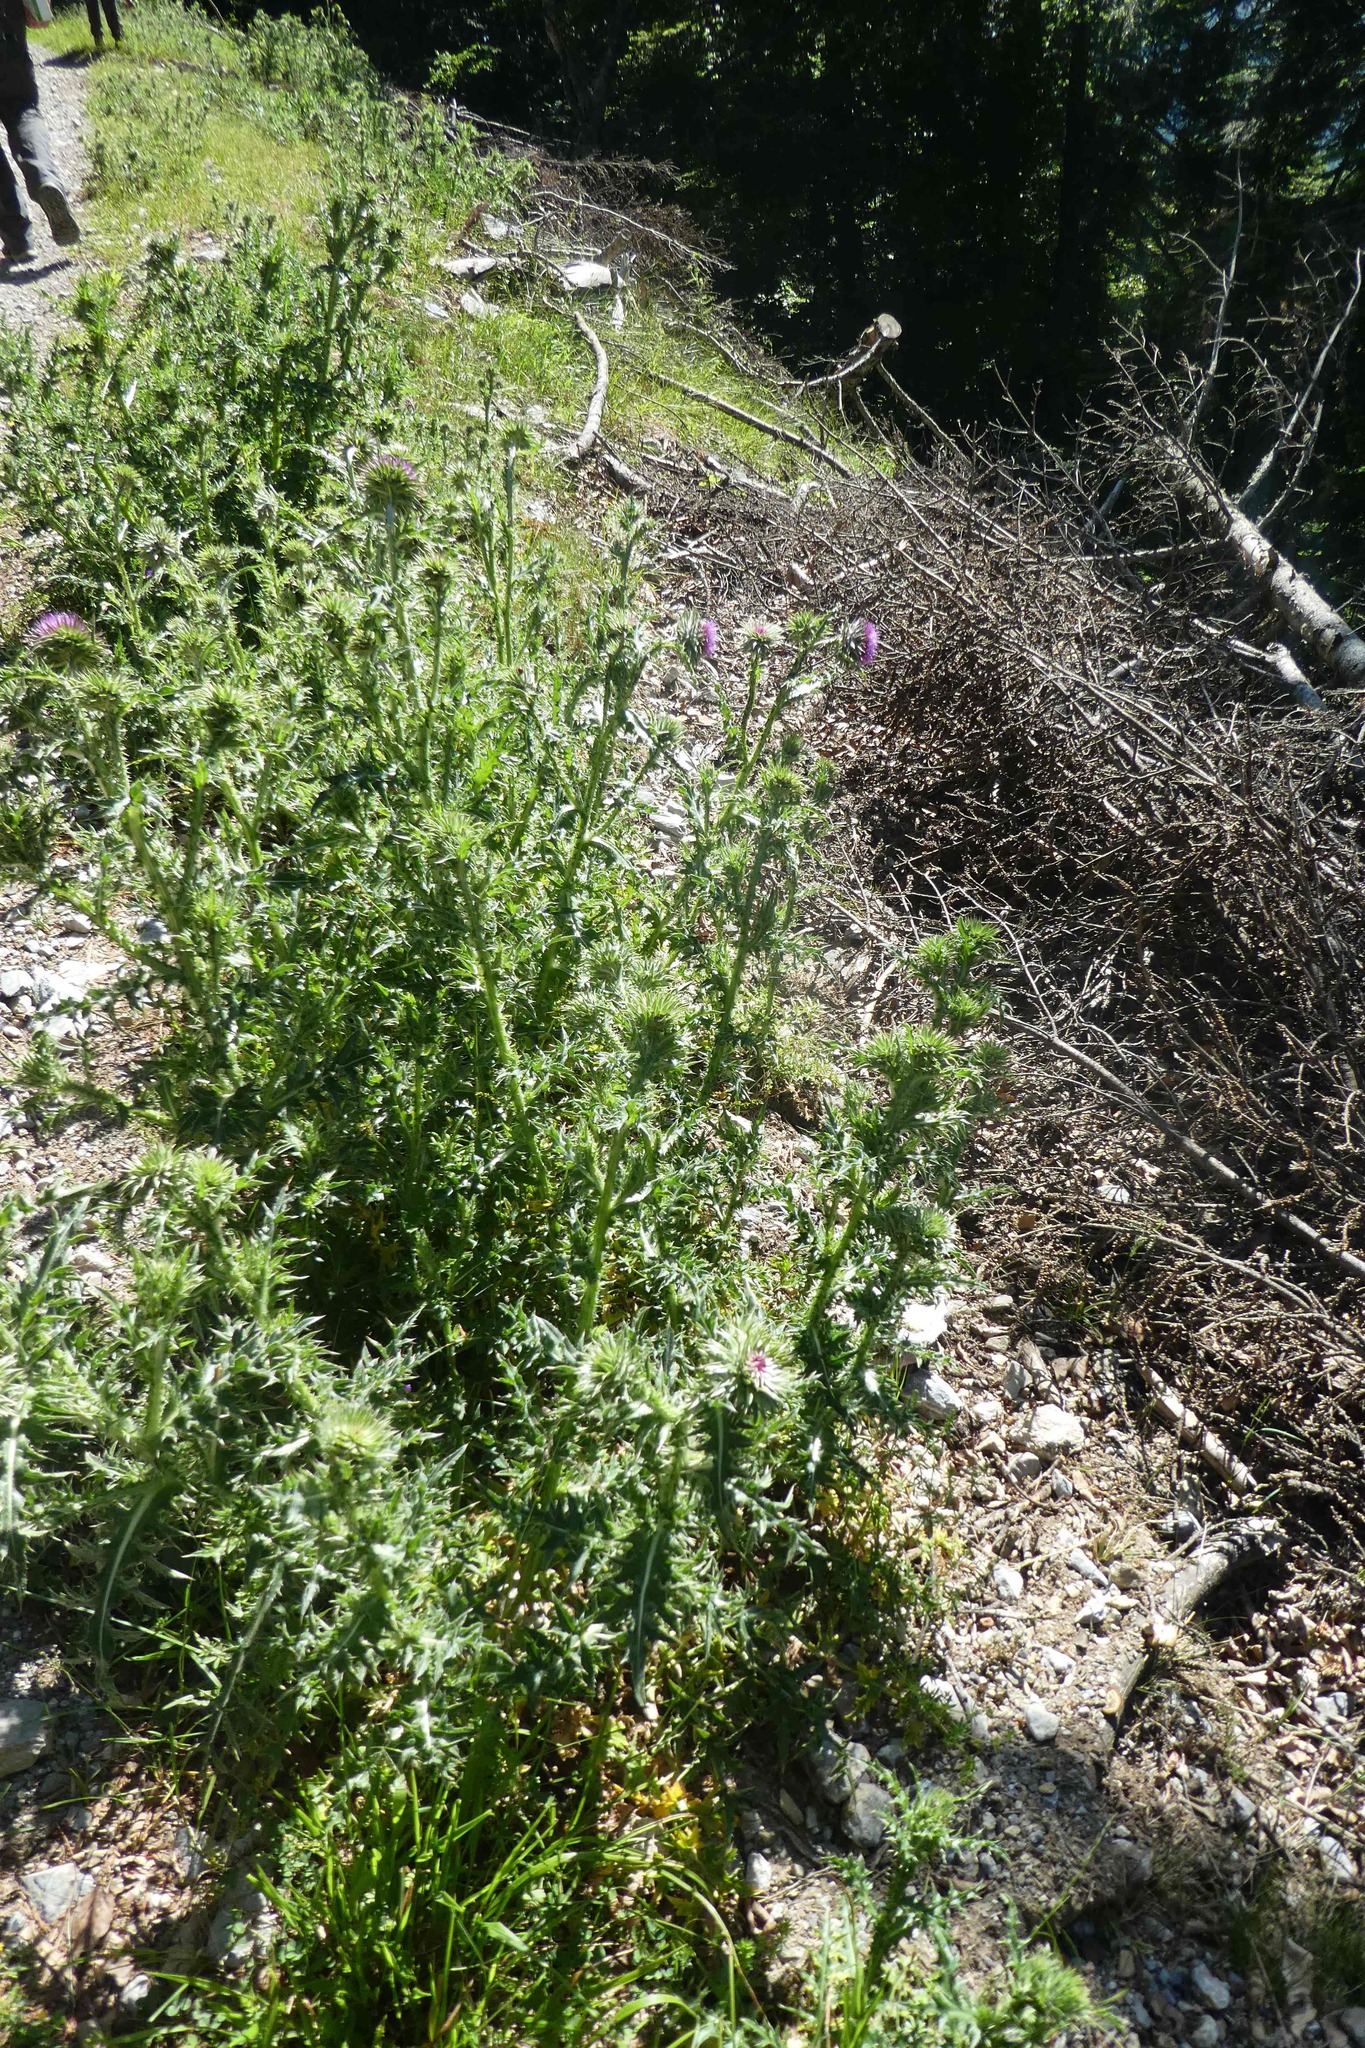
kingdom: Plantae
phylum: Tracheophyta
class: Magnoliopsida
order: Asterales
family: Asteraceae
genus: Carduus
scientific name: Carduus nutans
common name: Musk thistle
